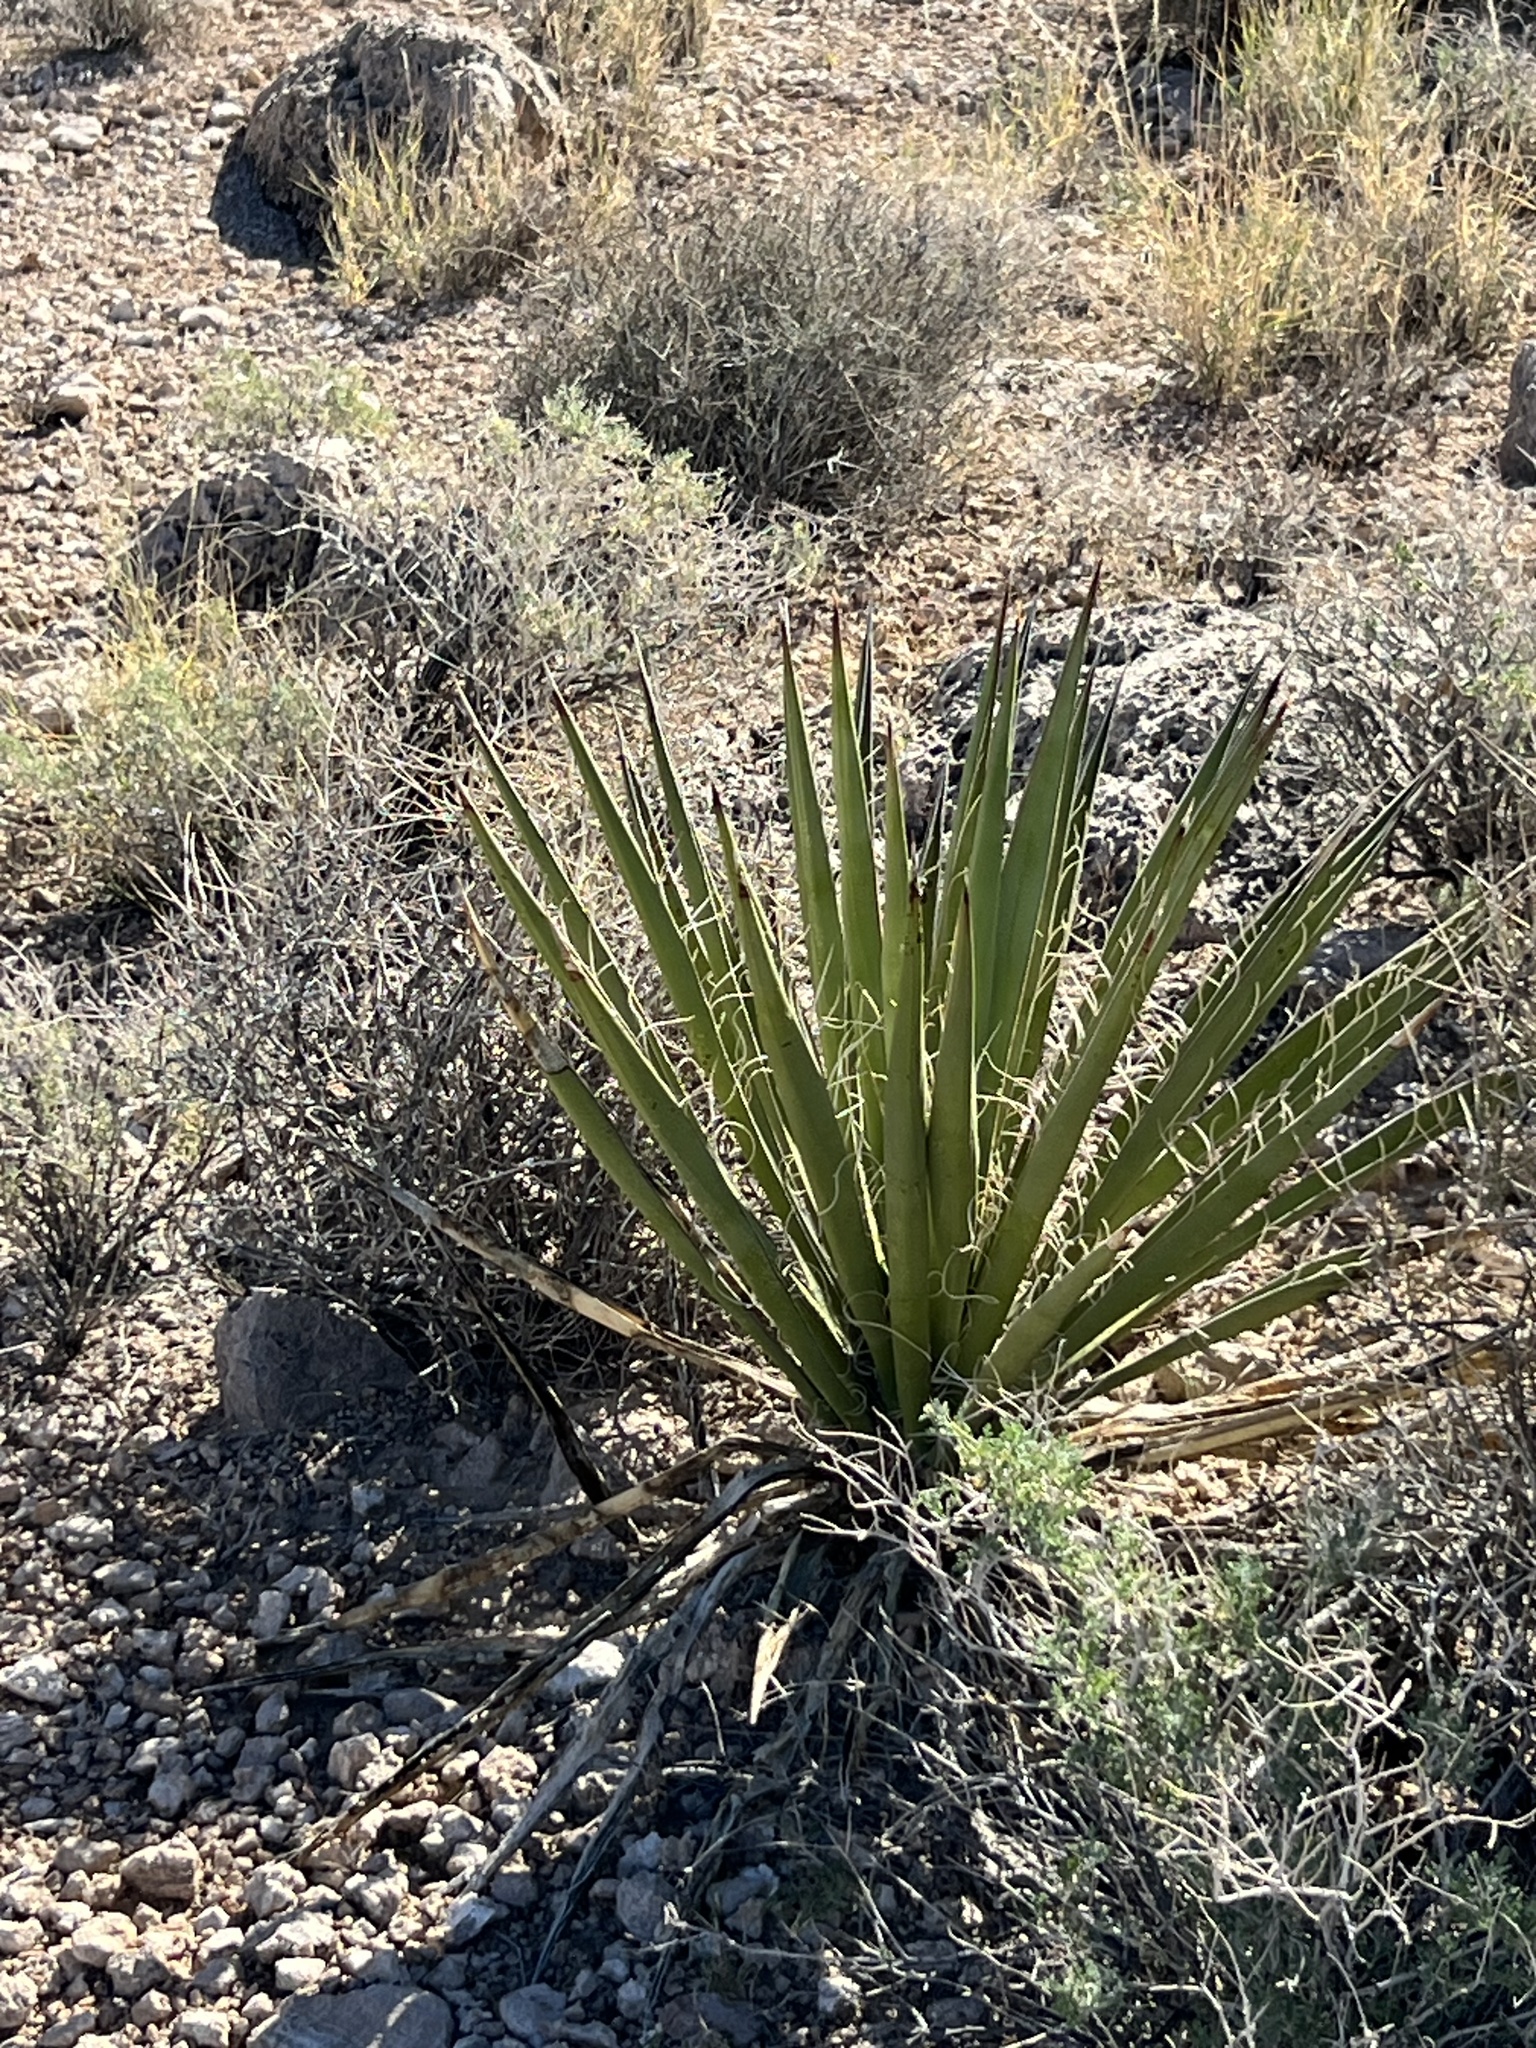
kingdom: Plantae
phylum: Tracheophyta
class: Liliopsida
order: Asparagales
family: Asparagaceae
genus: Yucca
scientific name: Yucca schidigera
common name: Mojave yucca
